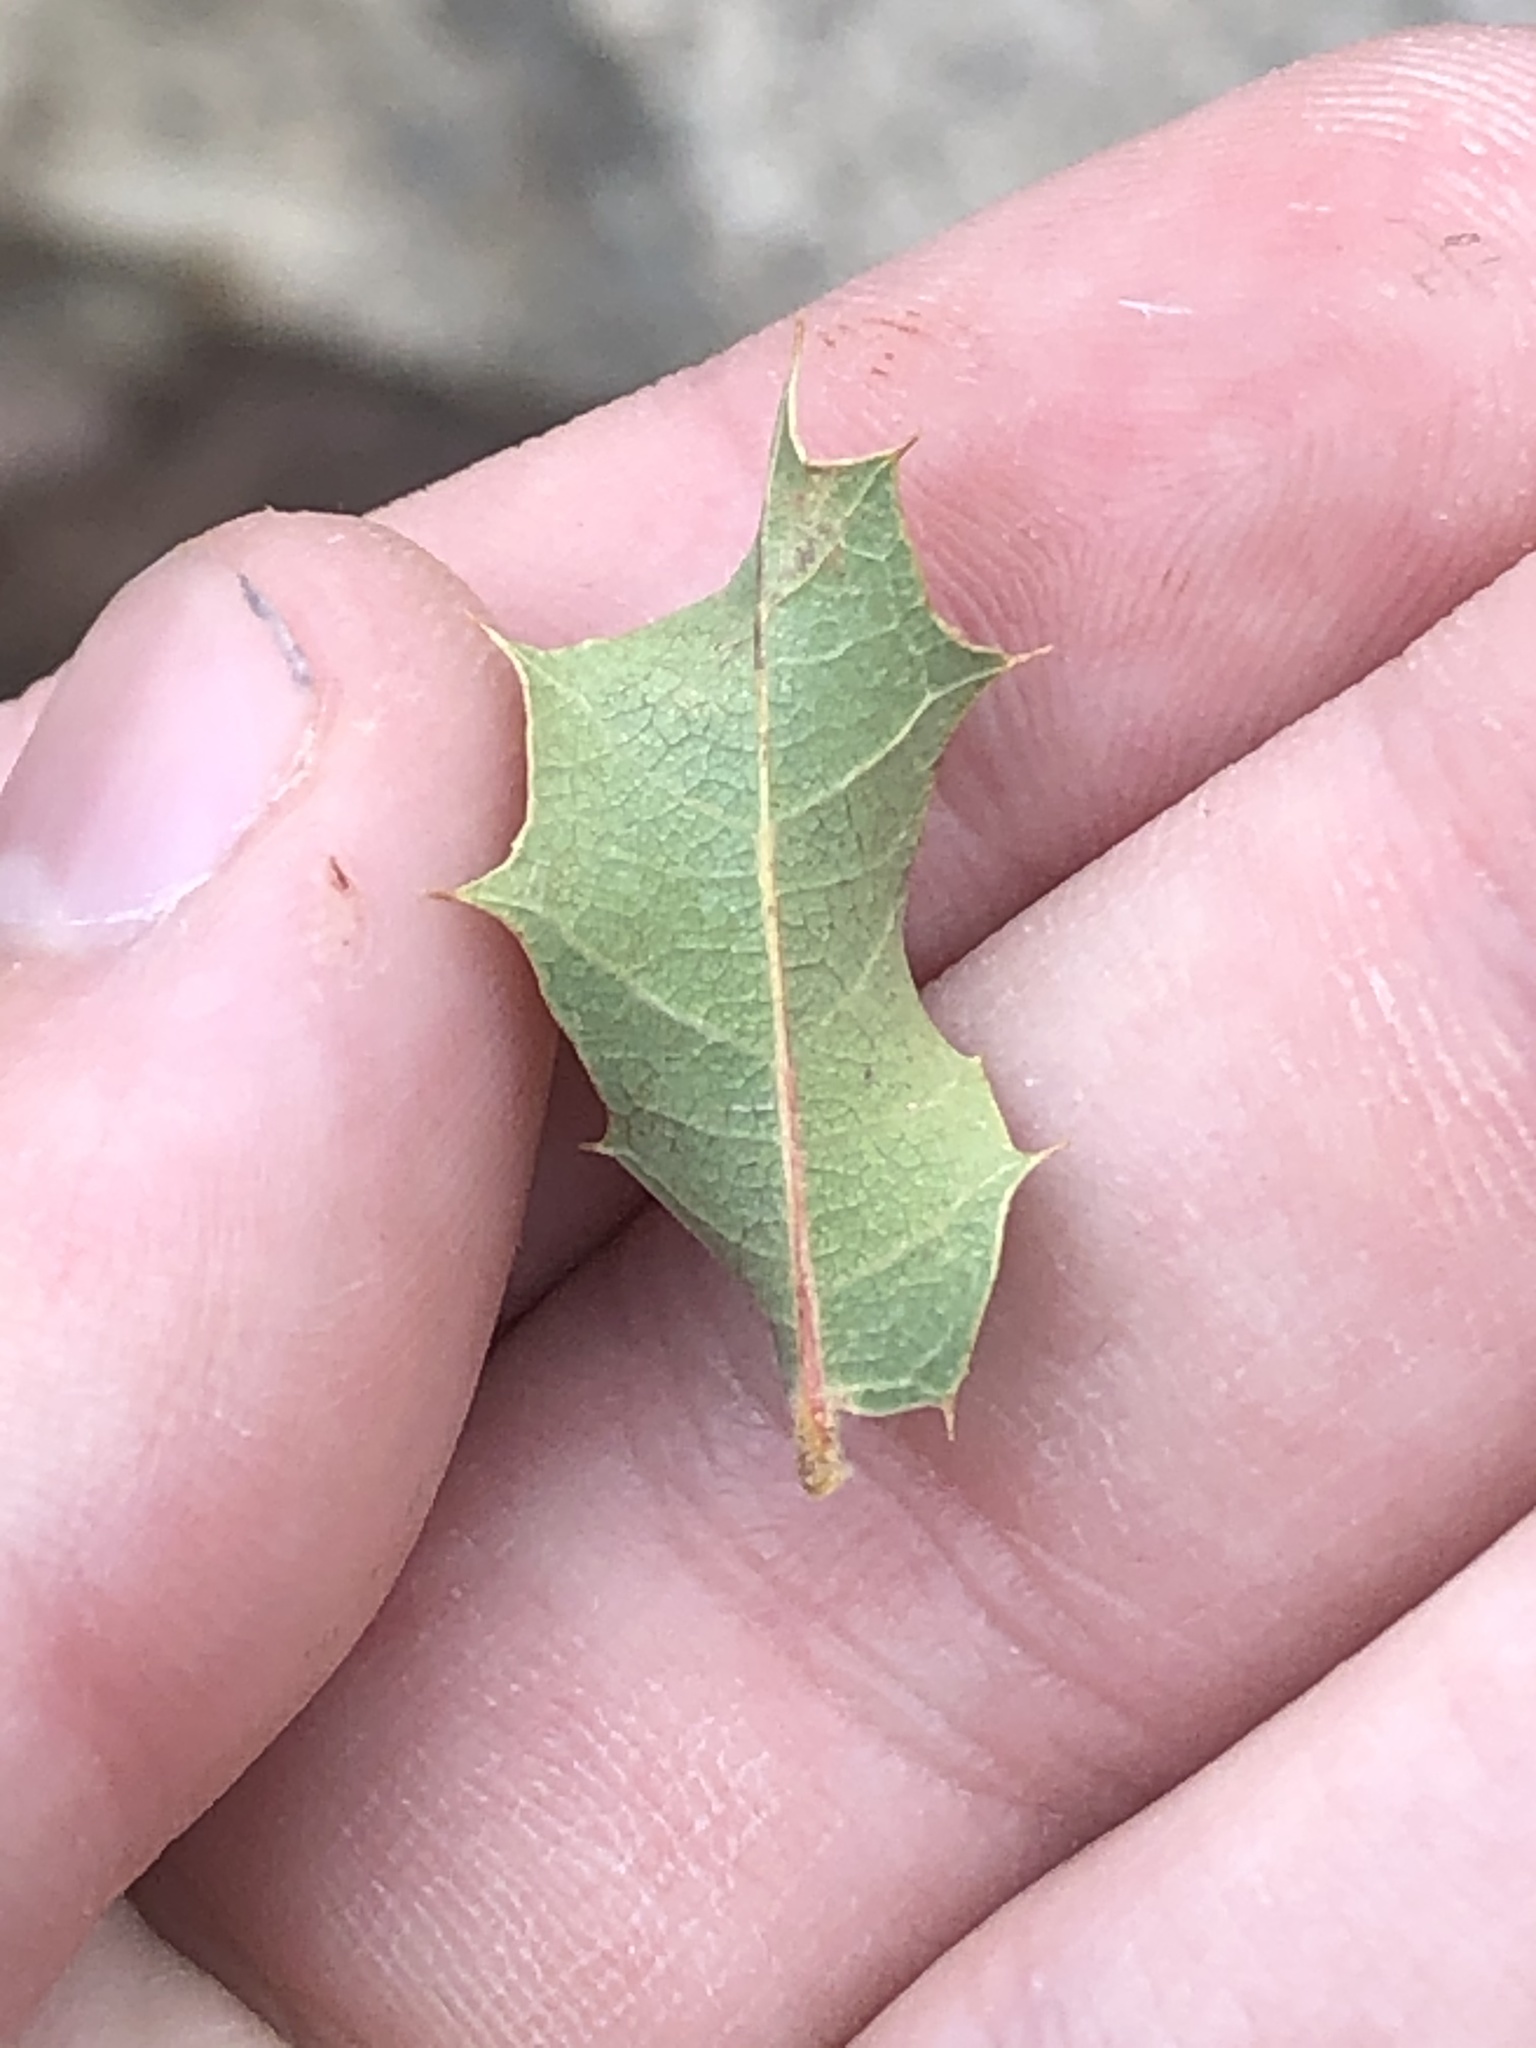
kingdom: Plantae
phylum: Tracheophyta
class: Magnoliopsida
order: Fagales
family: Fagaceae
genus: Quercus
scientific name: Quercus turbinella
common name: Sonoran scrub oak
